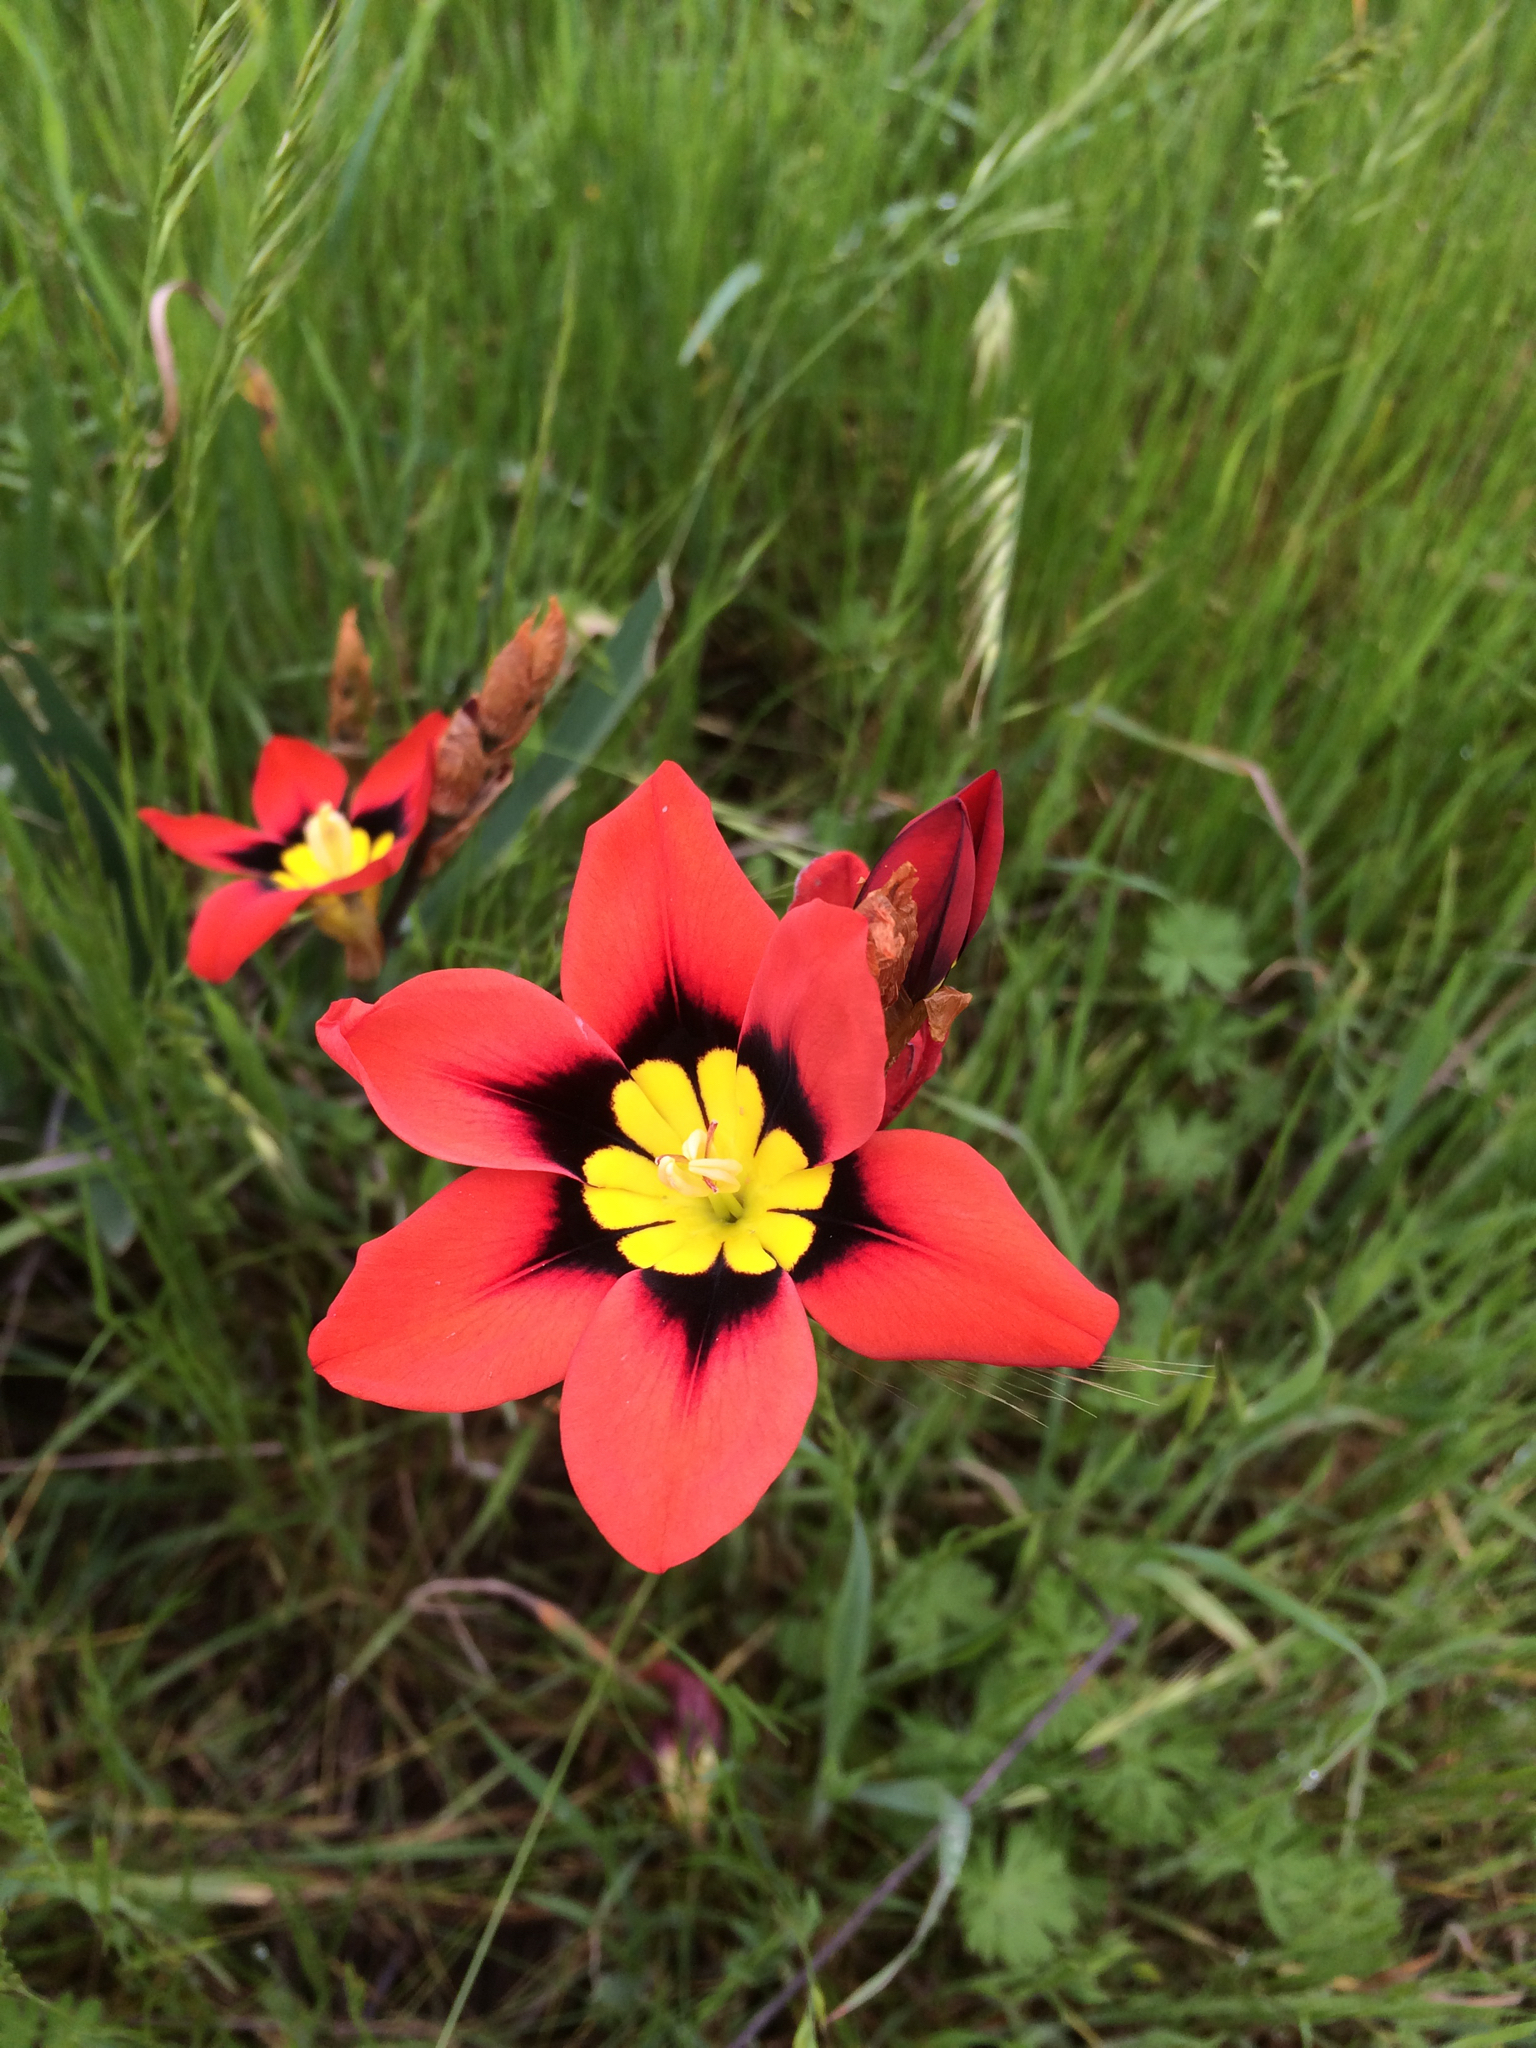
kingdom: Plantae
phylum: Tracheophyta
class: Liliopsida
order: Asparagales
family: Iridaceae
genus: Sparaxis
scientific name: Sparaxis tricolor
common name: Wandflower
